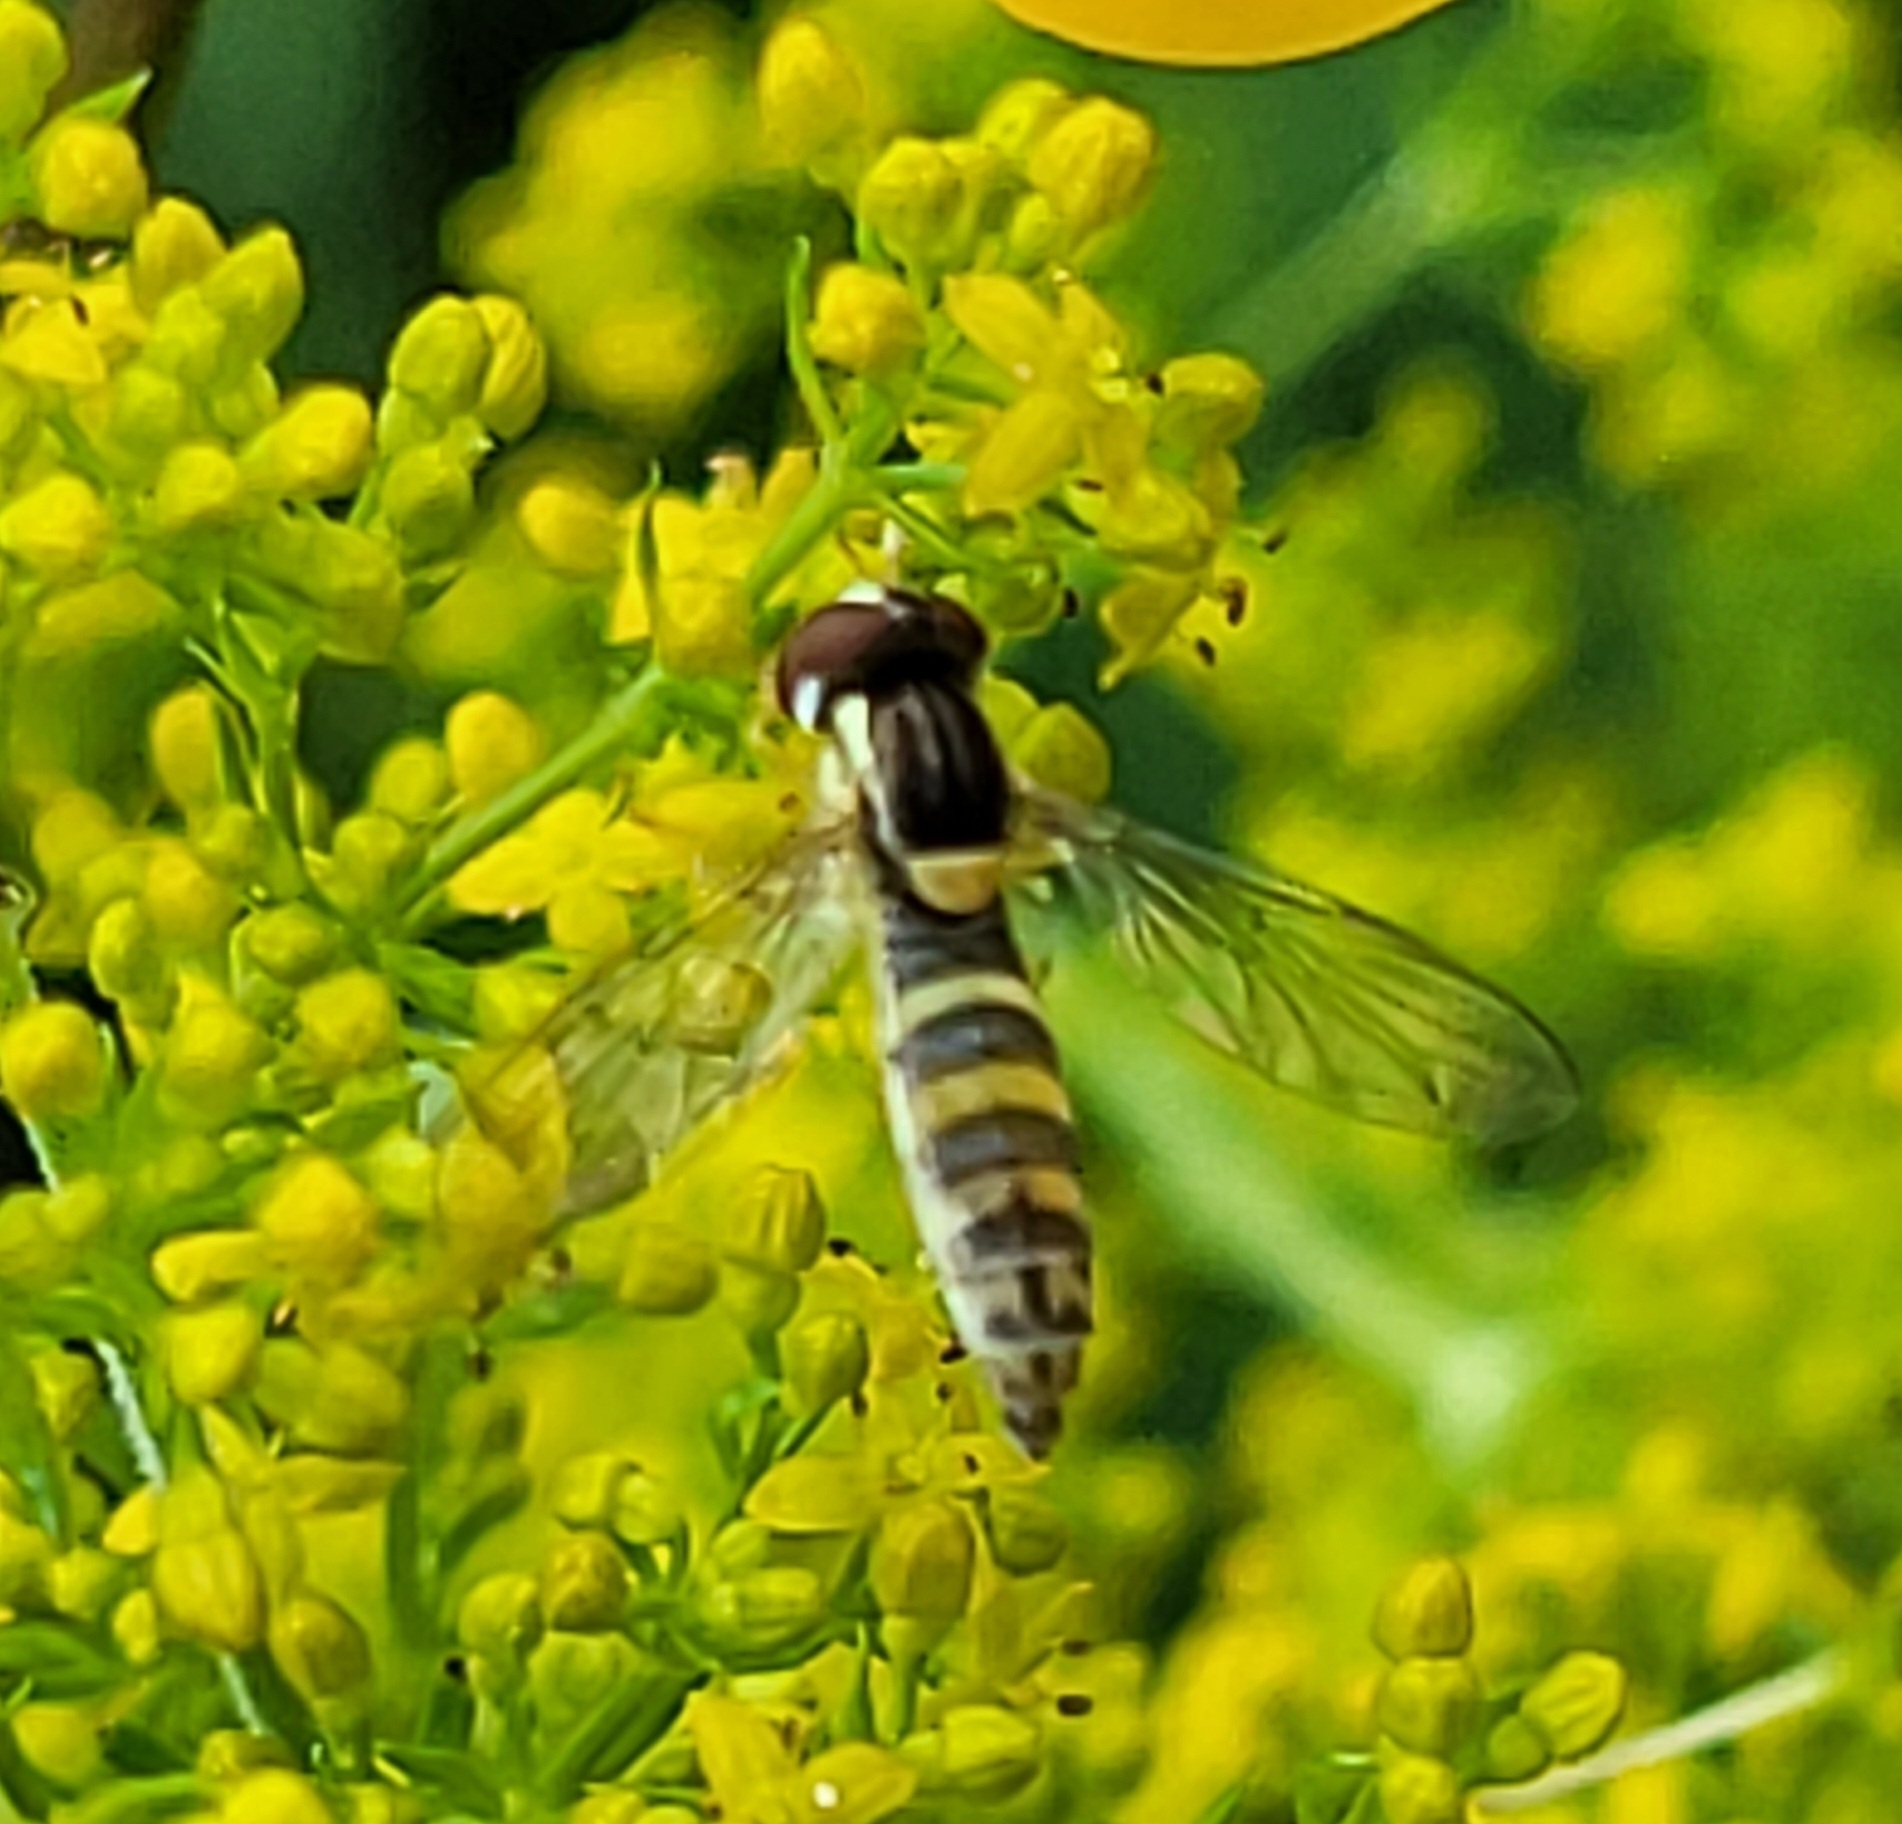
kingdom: Animalia
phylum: Arthropoda
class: Insecta
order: Diptera
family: Syrphidae
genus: Sphaerophoria
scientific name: Sphaerophoria
